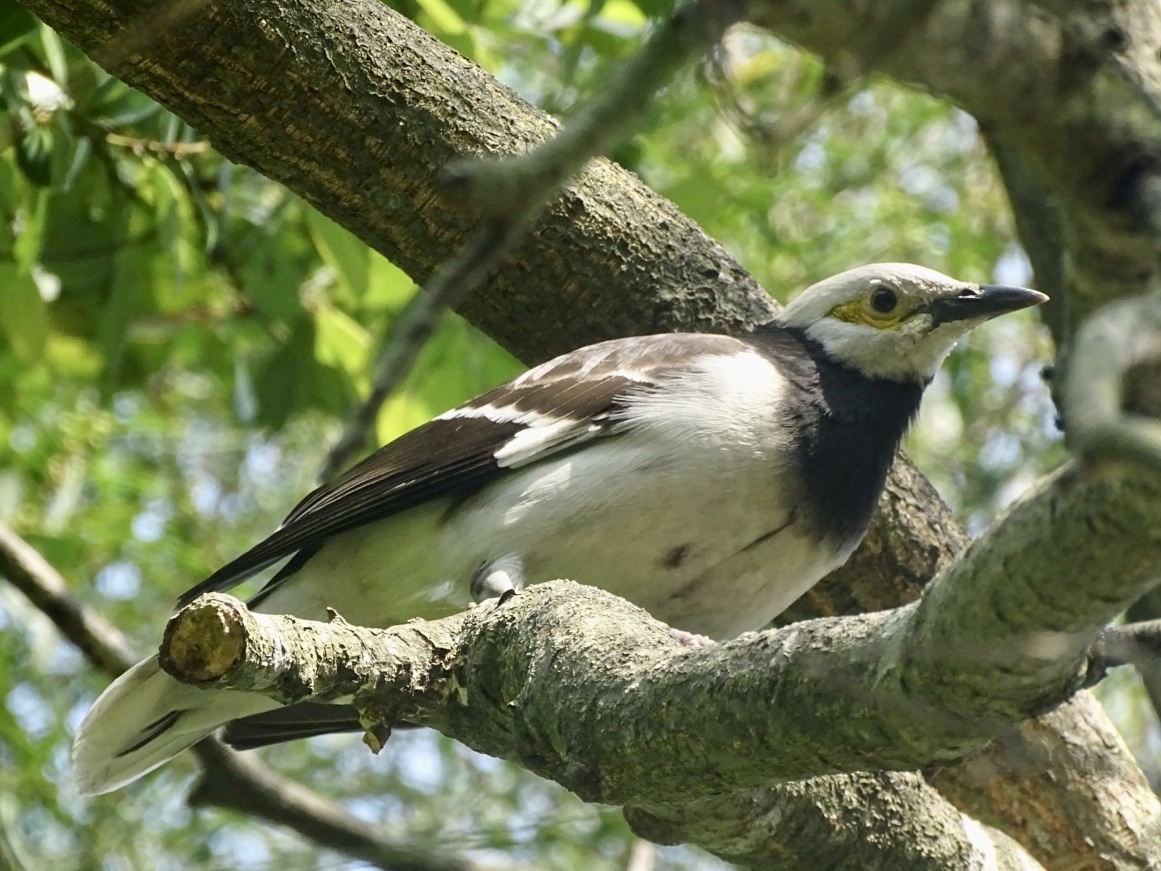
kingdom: Animalia
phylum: Chordata
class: Aves
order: Passeriformes
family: Sturnidae
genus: Gracupica
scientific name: Gracupica nigricollis
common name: Black-collared starling
